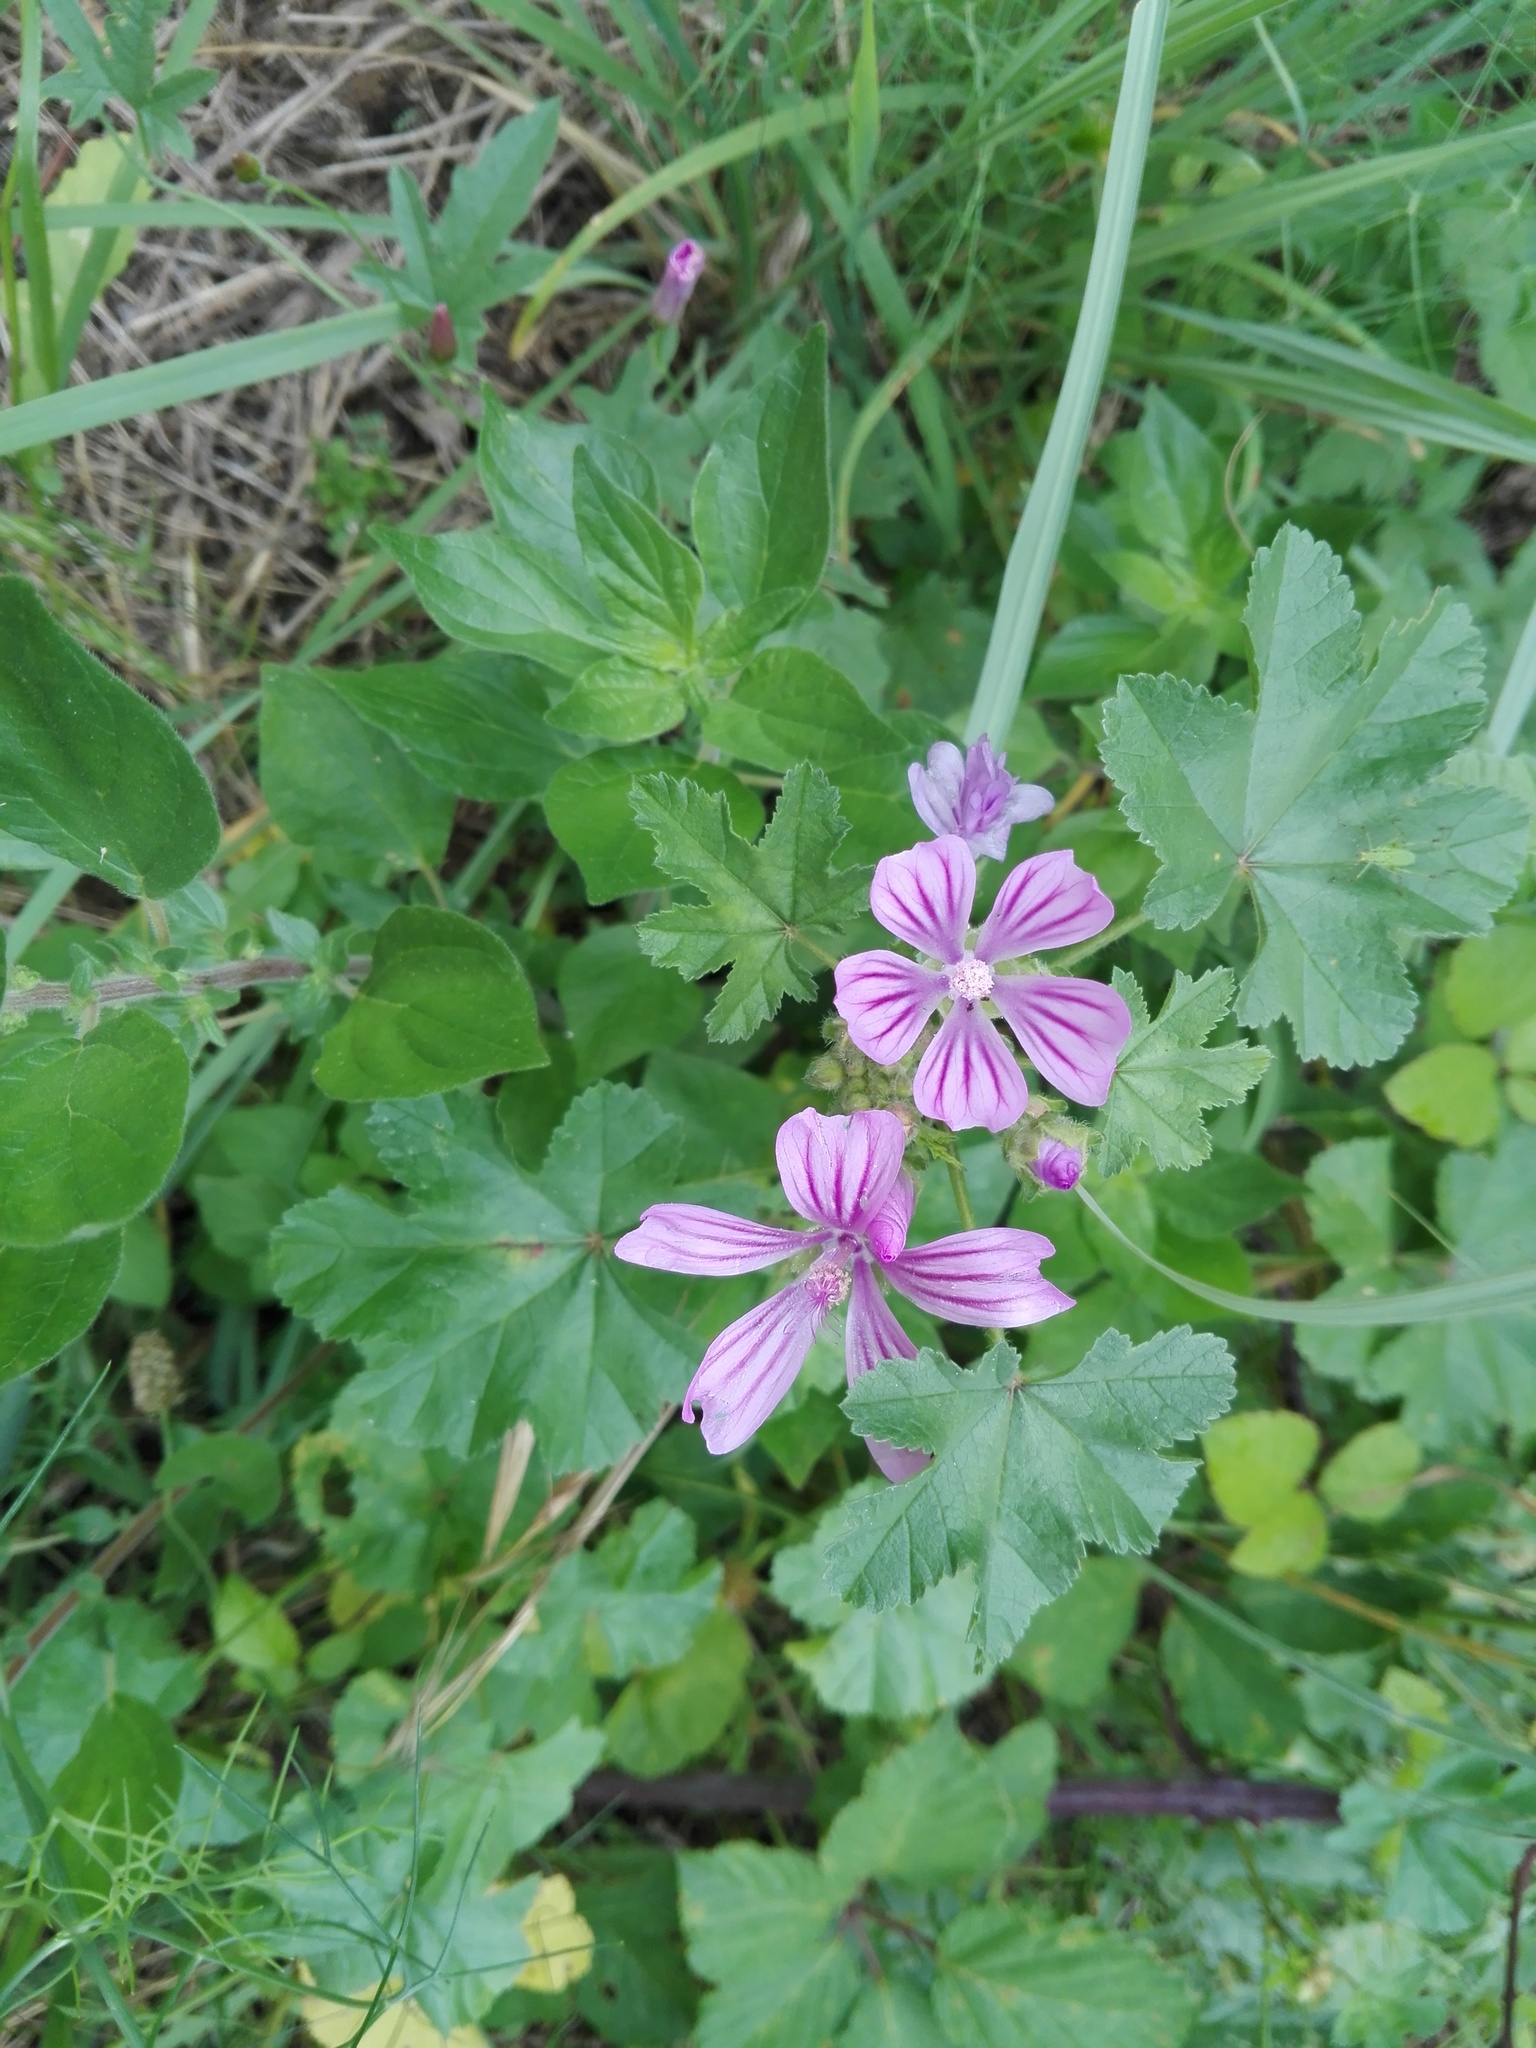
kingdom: Plantae
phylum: Tracheophyta
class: Magnoliopsida
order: Malvales
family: Malvaceae
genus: Malva
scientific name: Malva sylvestris
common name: Common mallow
